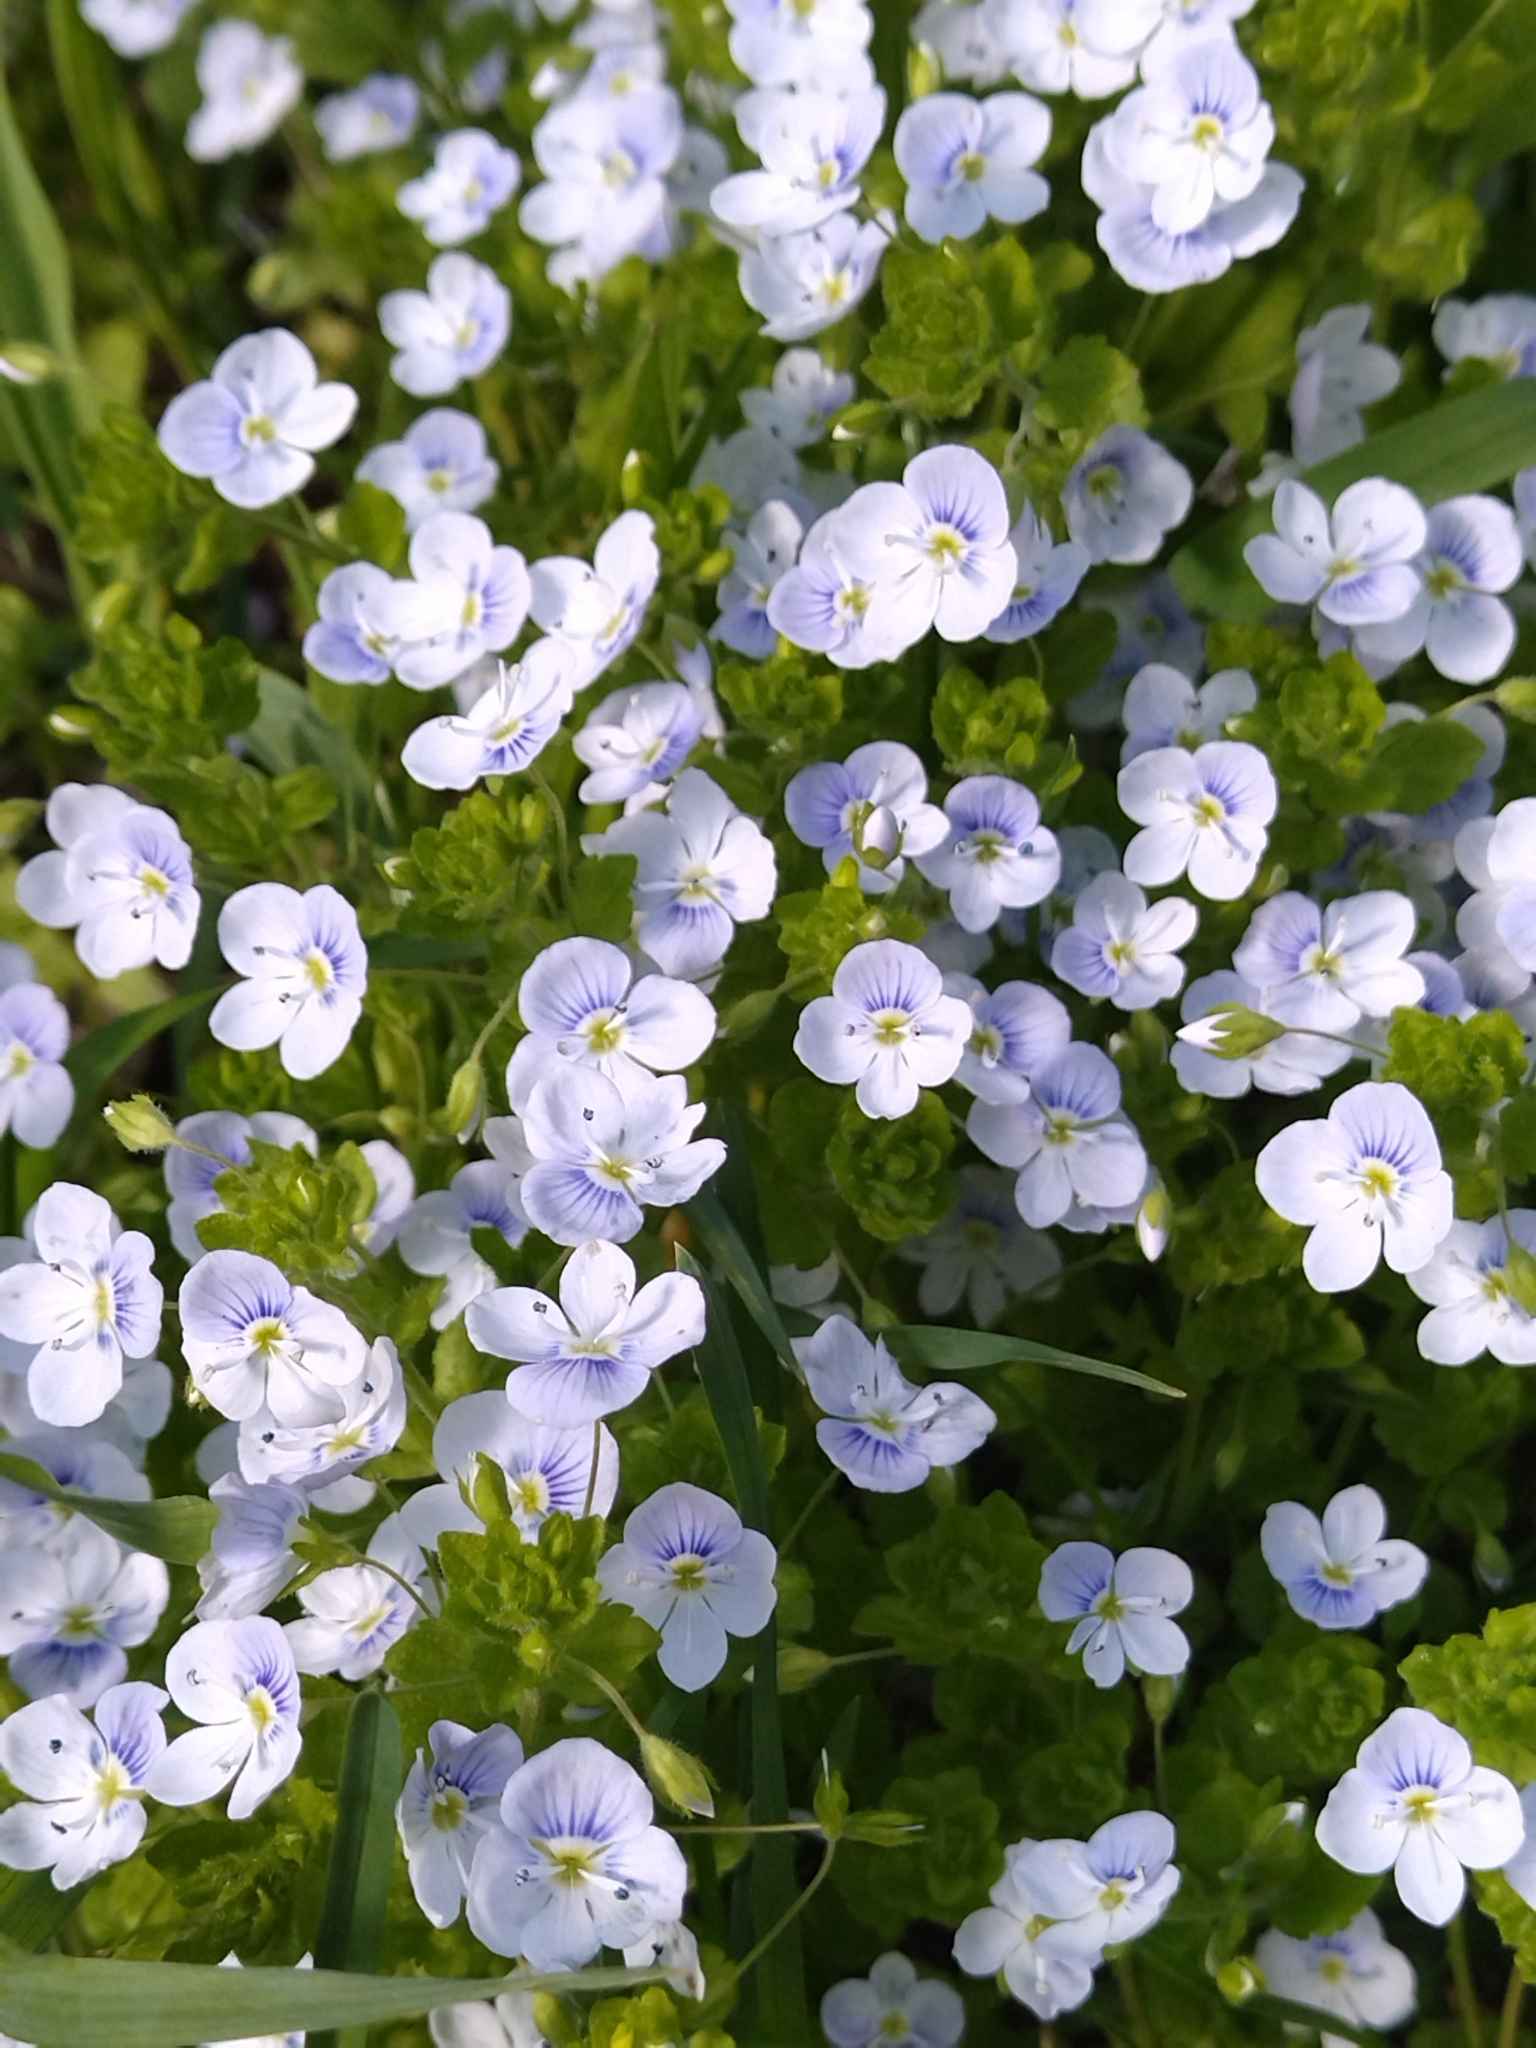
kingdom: Plantae
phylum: Tracheophyta
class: Magnoliopsida
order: Lamiales
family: Plantaginaceae
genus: Veronica
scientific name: Veronica filiformis
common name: Slender speedwell
